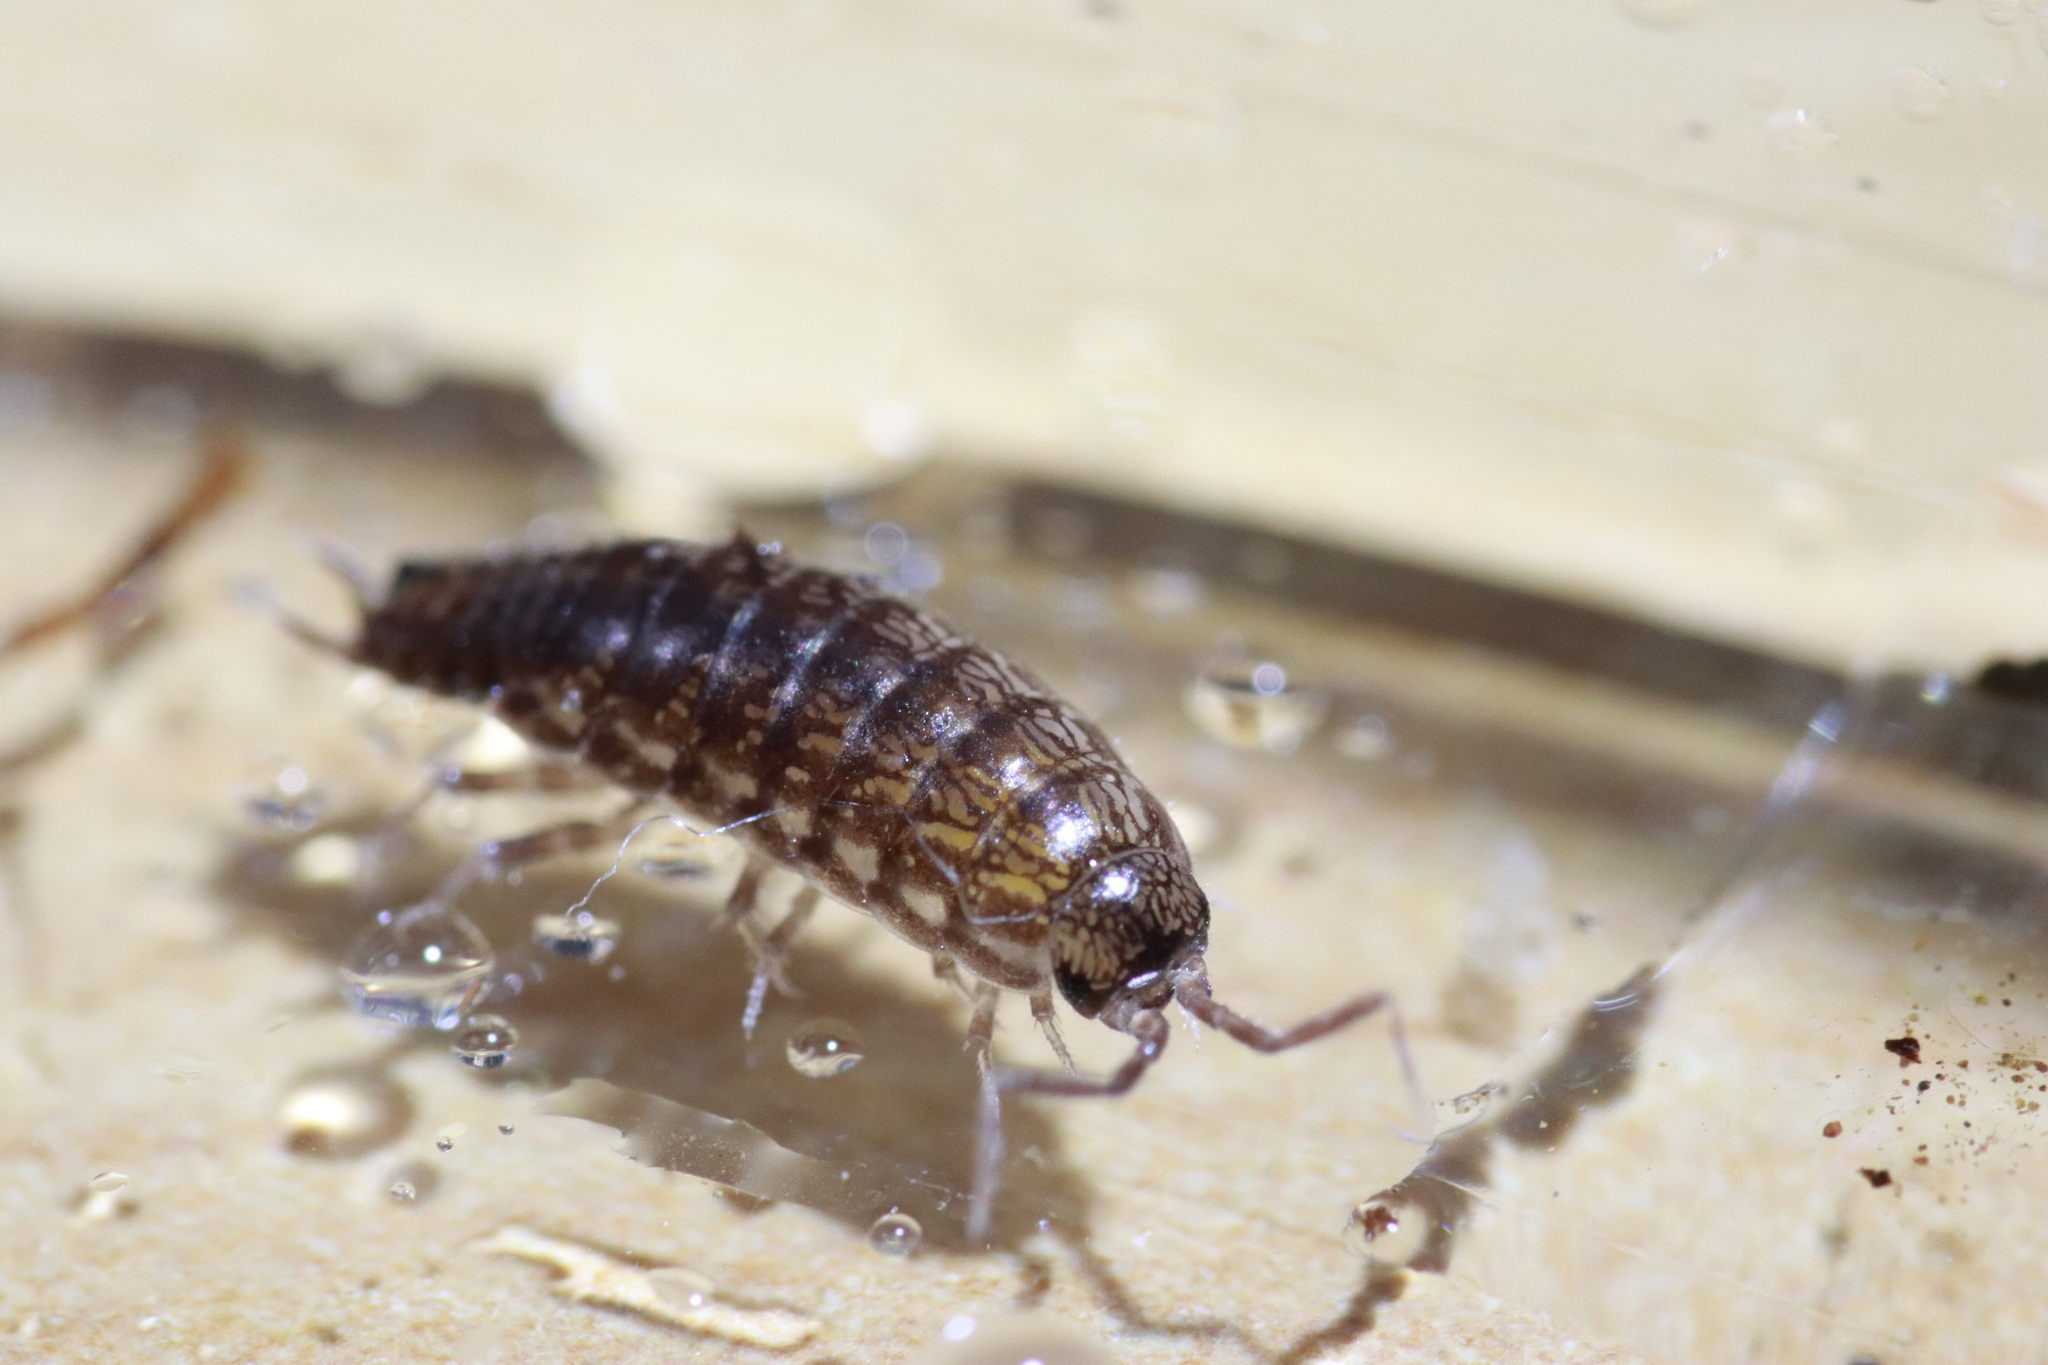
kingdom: Animalia
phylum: Arthropoda
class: Malacostraca
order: Isopoda
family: Philosciidae
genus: Chaetophiloscia
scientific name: Chaetophiloscia sicula
